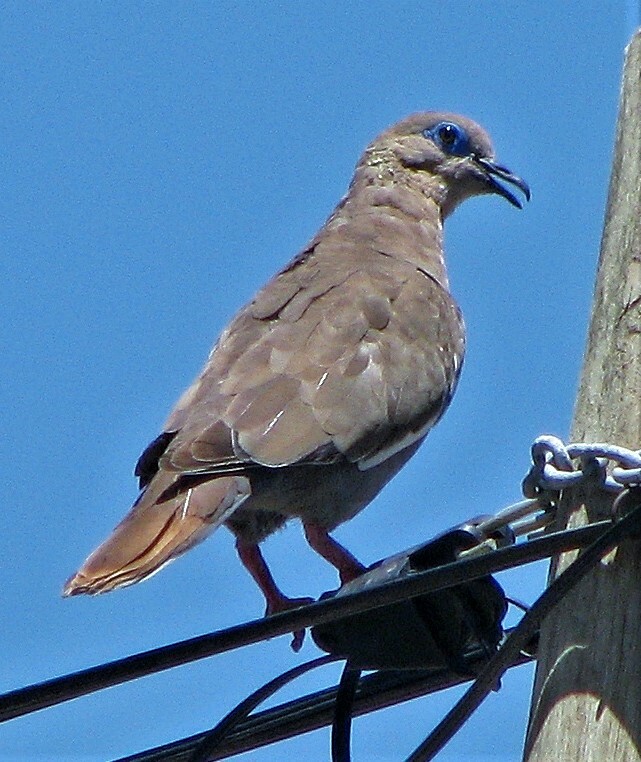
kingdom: Animalia
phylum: Chordata
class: Aves
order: Columbiformes
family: Columbidae
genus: Zenaida
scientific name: Zenaida meloda
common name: West peruvian dove
